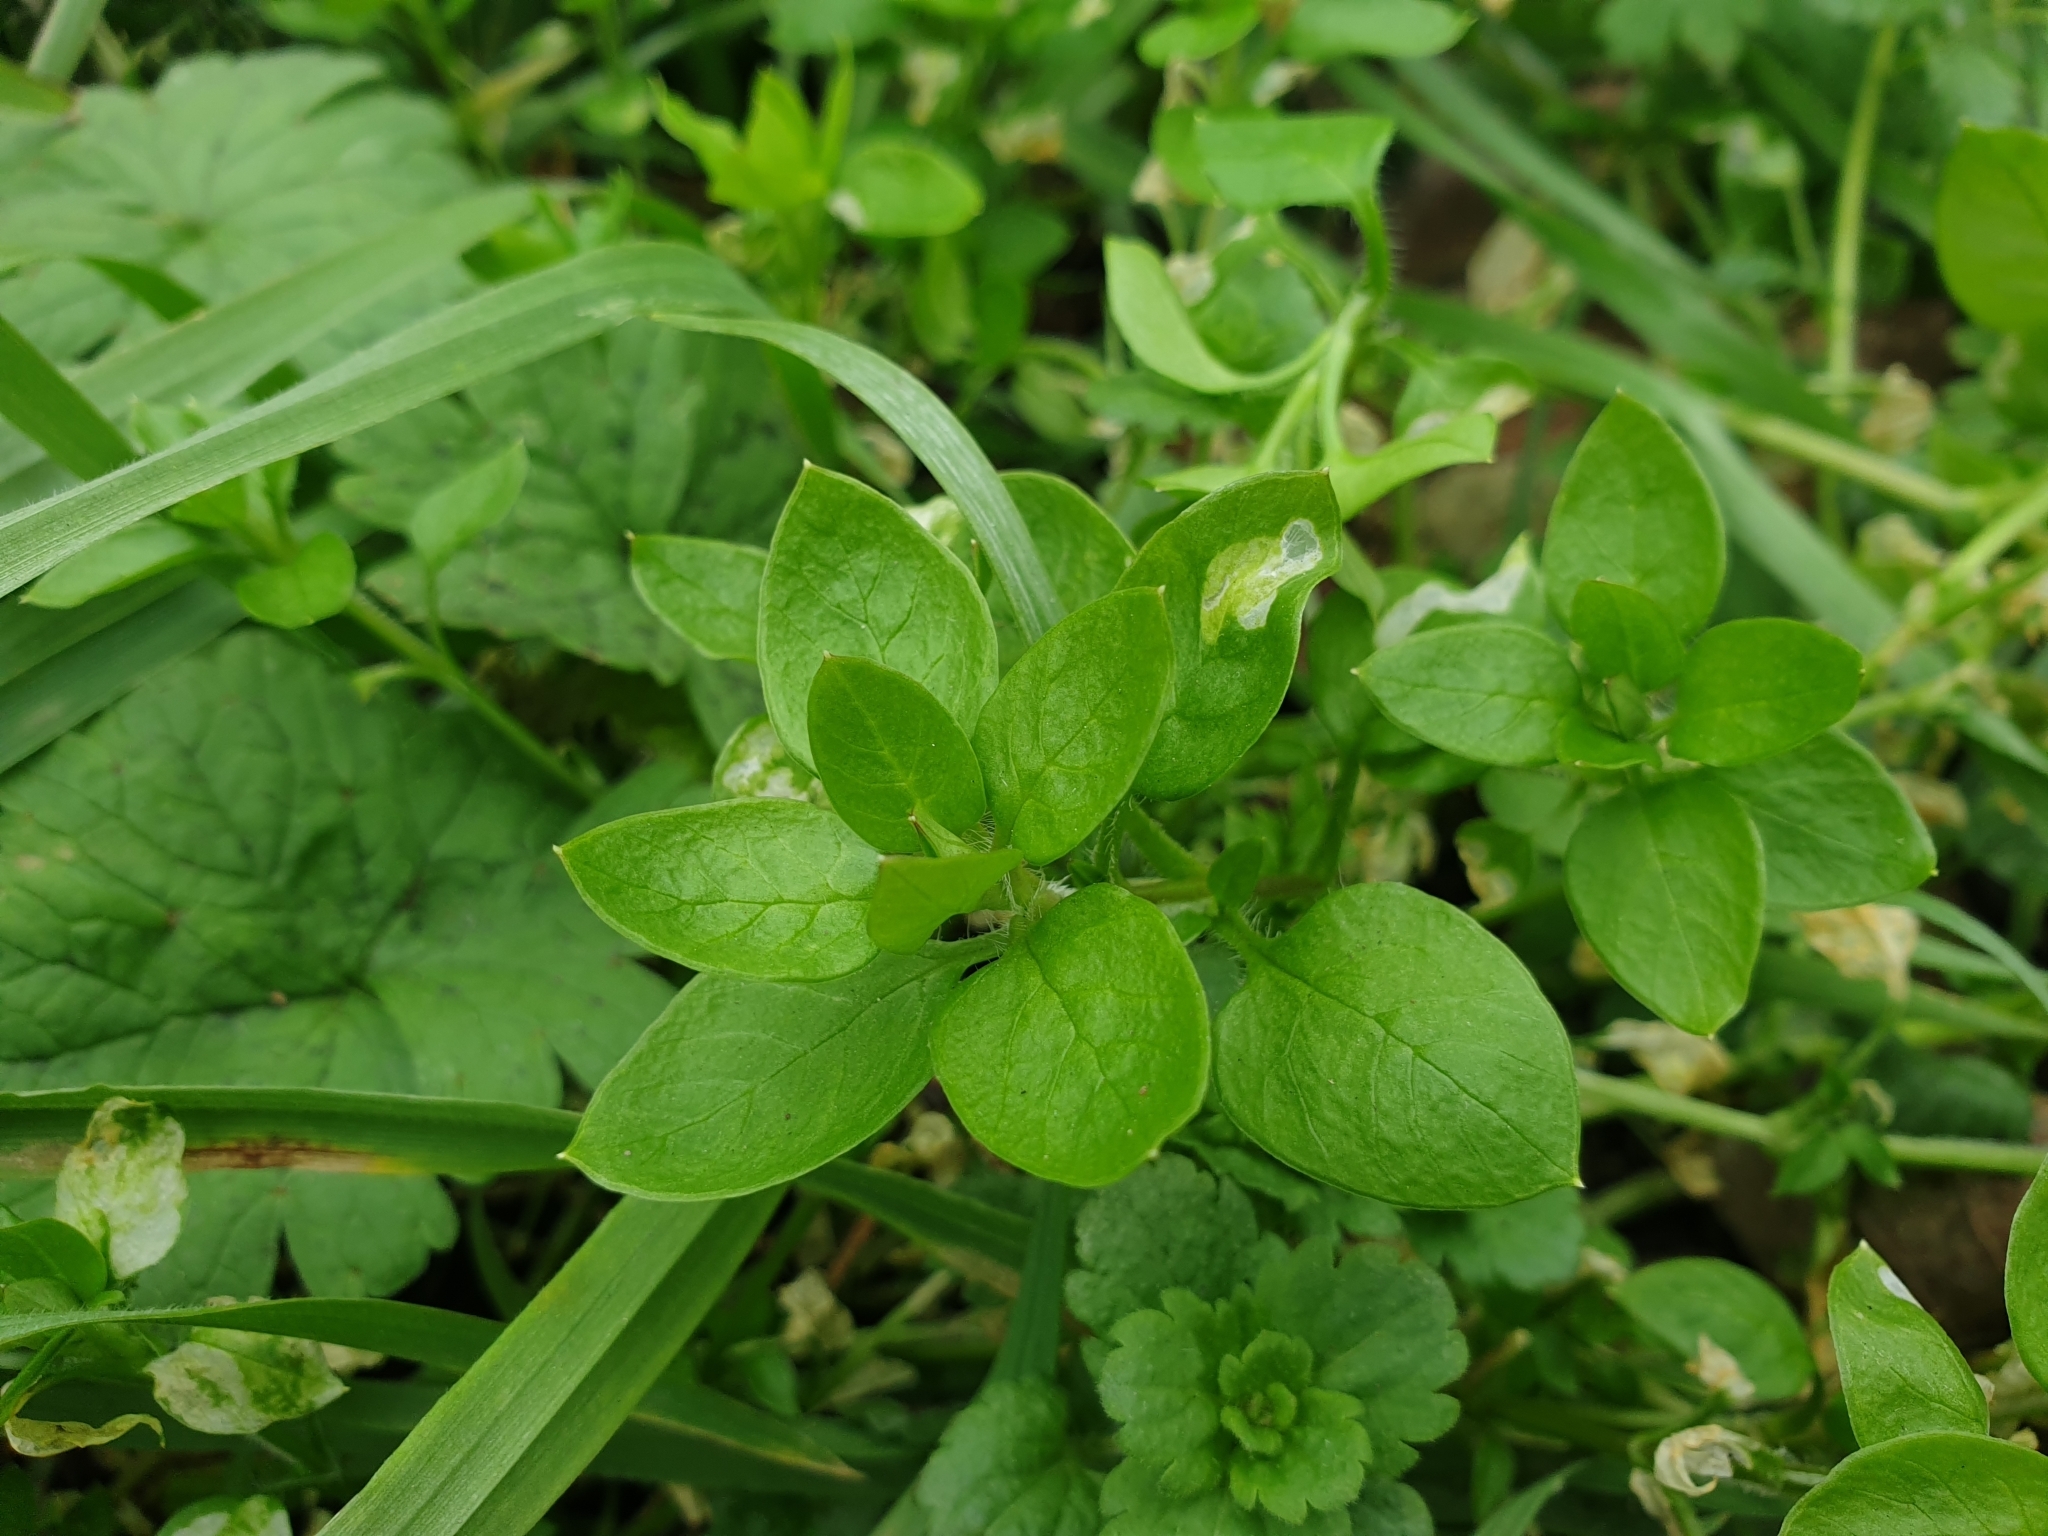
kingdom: Plantae
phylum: Tracheophyta
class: Magnoliopsida
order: Caryophyllales
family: Caryophyllaceae
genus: Stellaria
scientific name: Stellaria media
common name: Common chickweed
